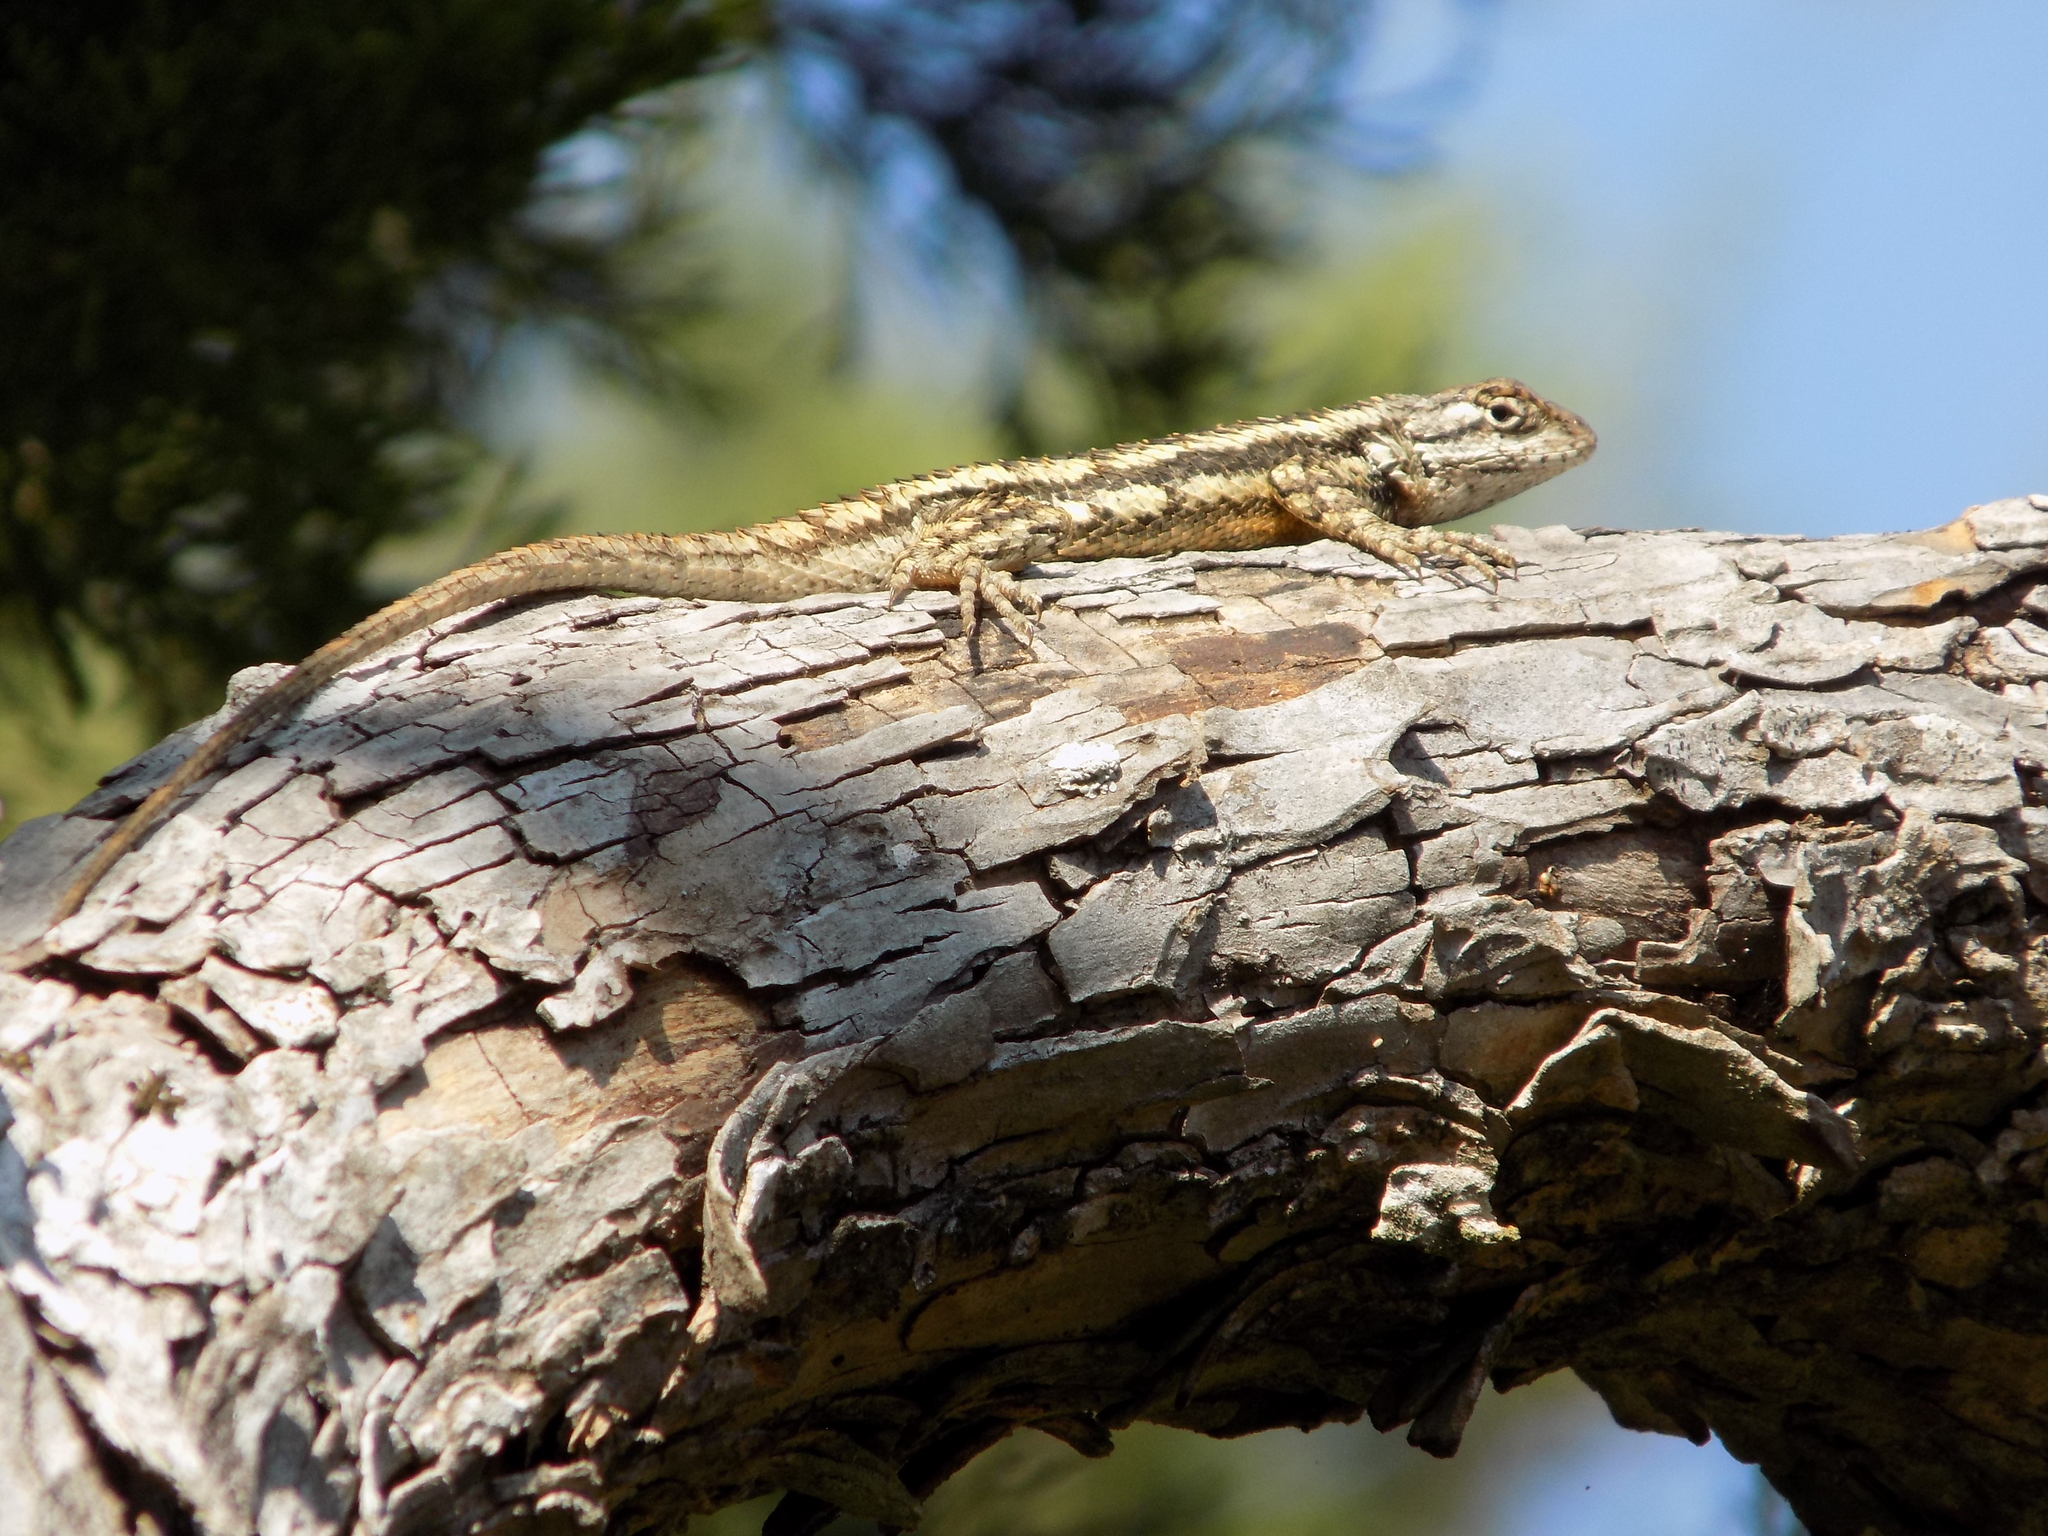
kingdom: Animalia
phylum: Chordata
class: Squamata
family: Phrynosomatidae
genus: Sceloporus
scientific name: Sceloporus olivaceus
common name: Texas spiny lizard
